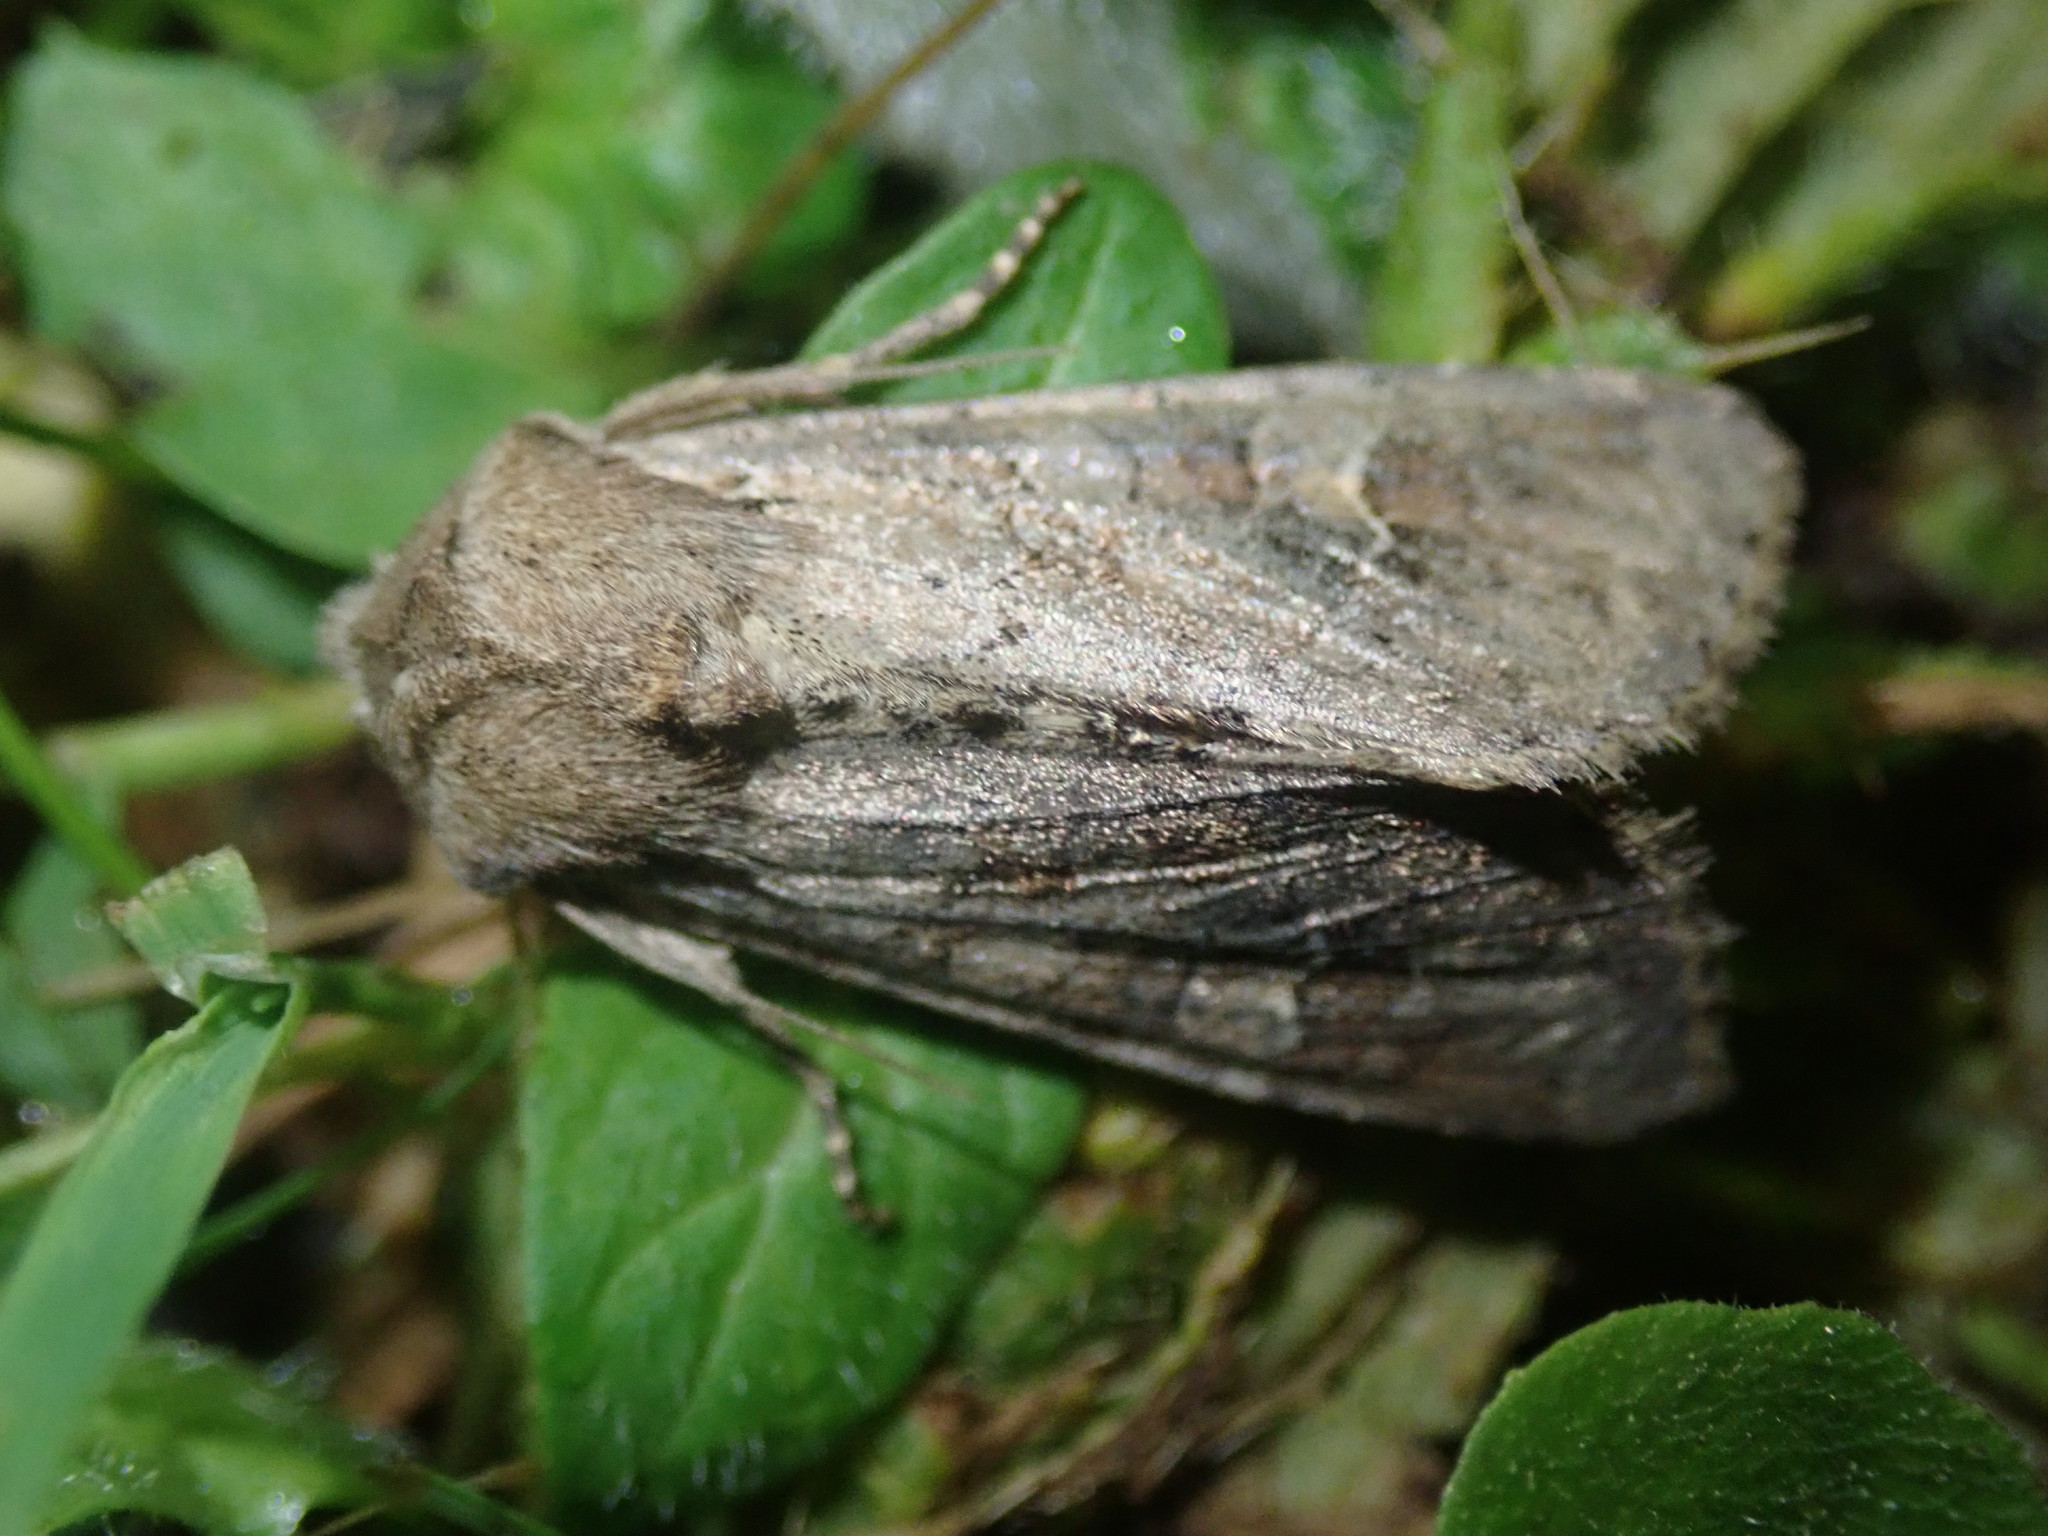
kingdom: Animalia
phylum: Arthropoda
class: Insecta
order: Lepidoptera
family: Noctuidae
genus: Apamea
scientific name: Apamea sordens
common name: Rustic shoulder-knot
